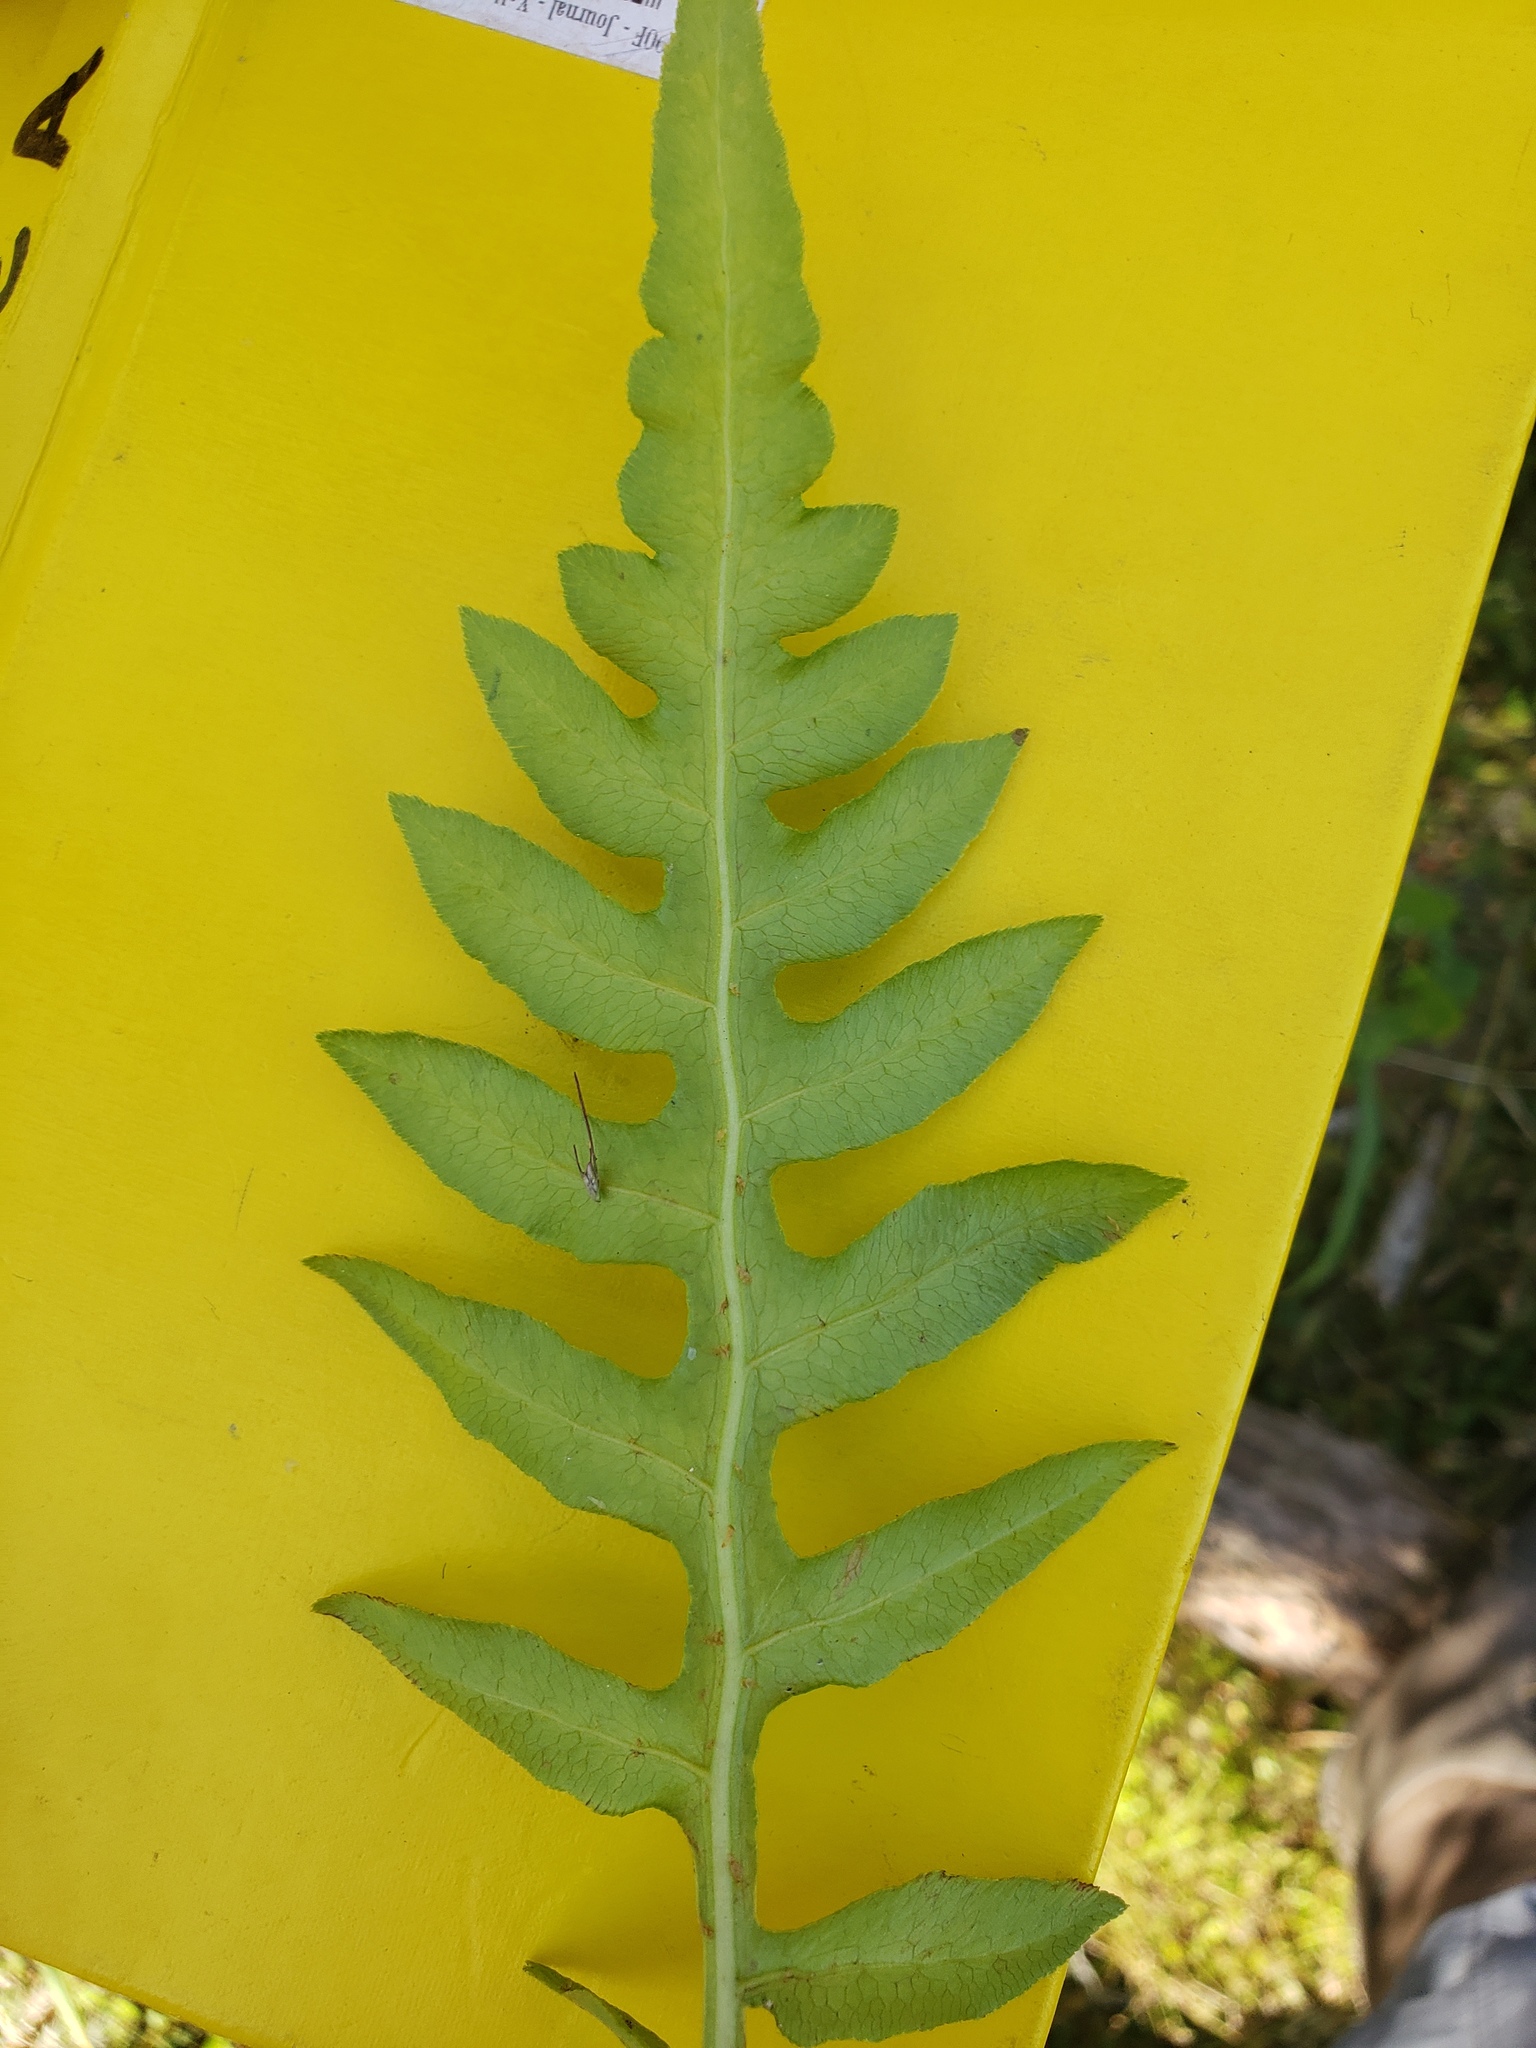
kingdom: Plantae
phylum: Tracheophyta
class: Polypodiopsida
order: Polypodiales
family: Blechnaceae
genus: Lorinseria
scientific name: Lorinseria areolata
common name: Dwarf chain fern
